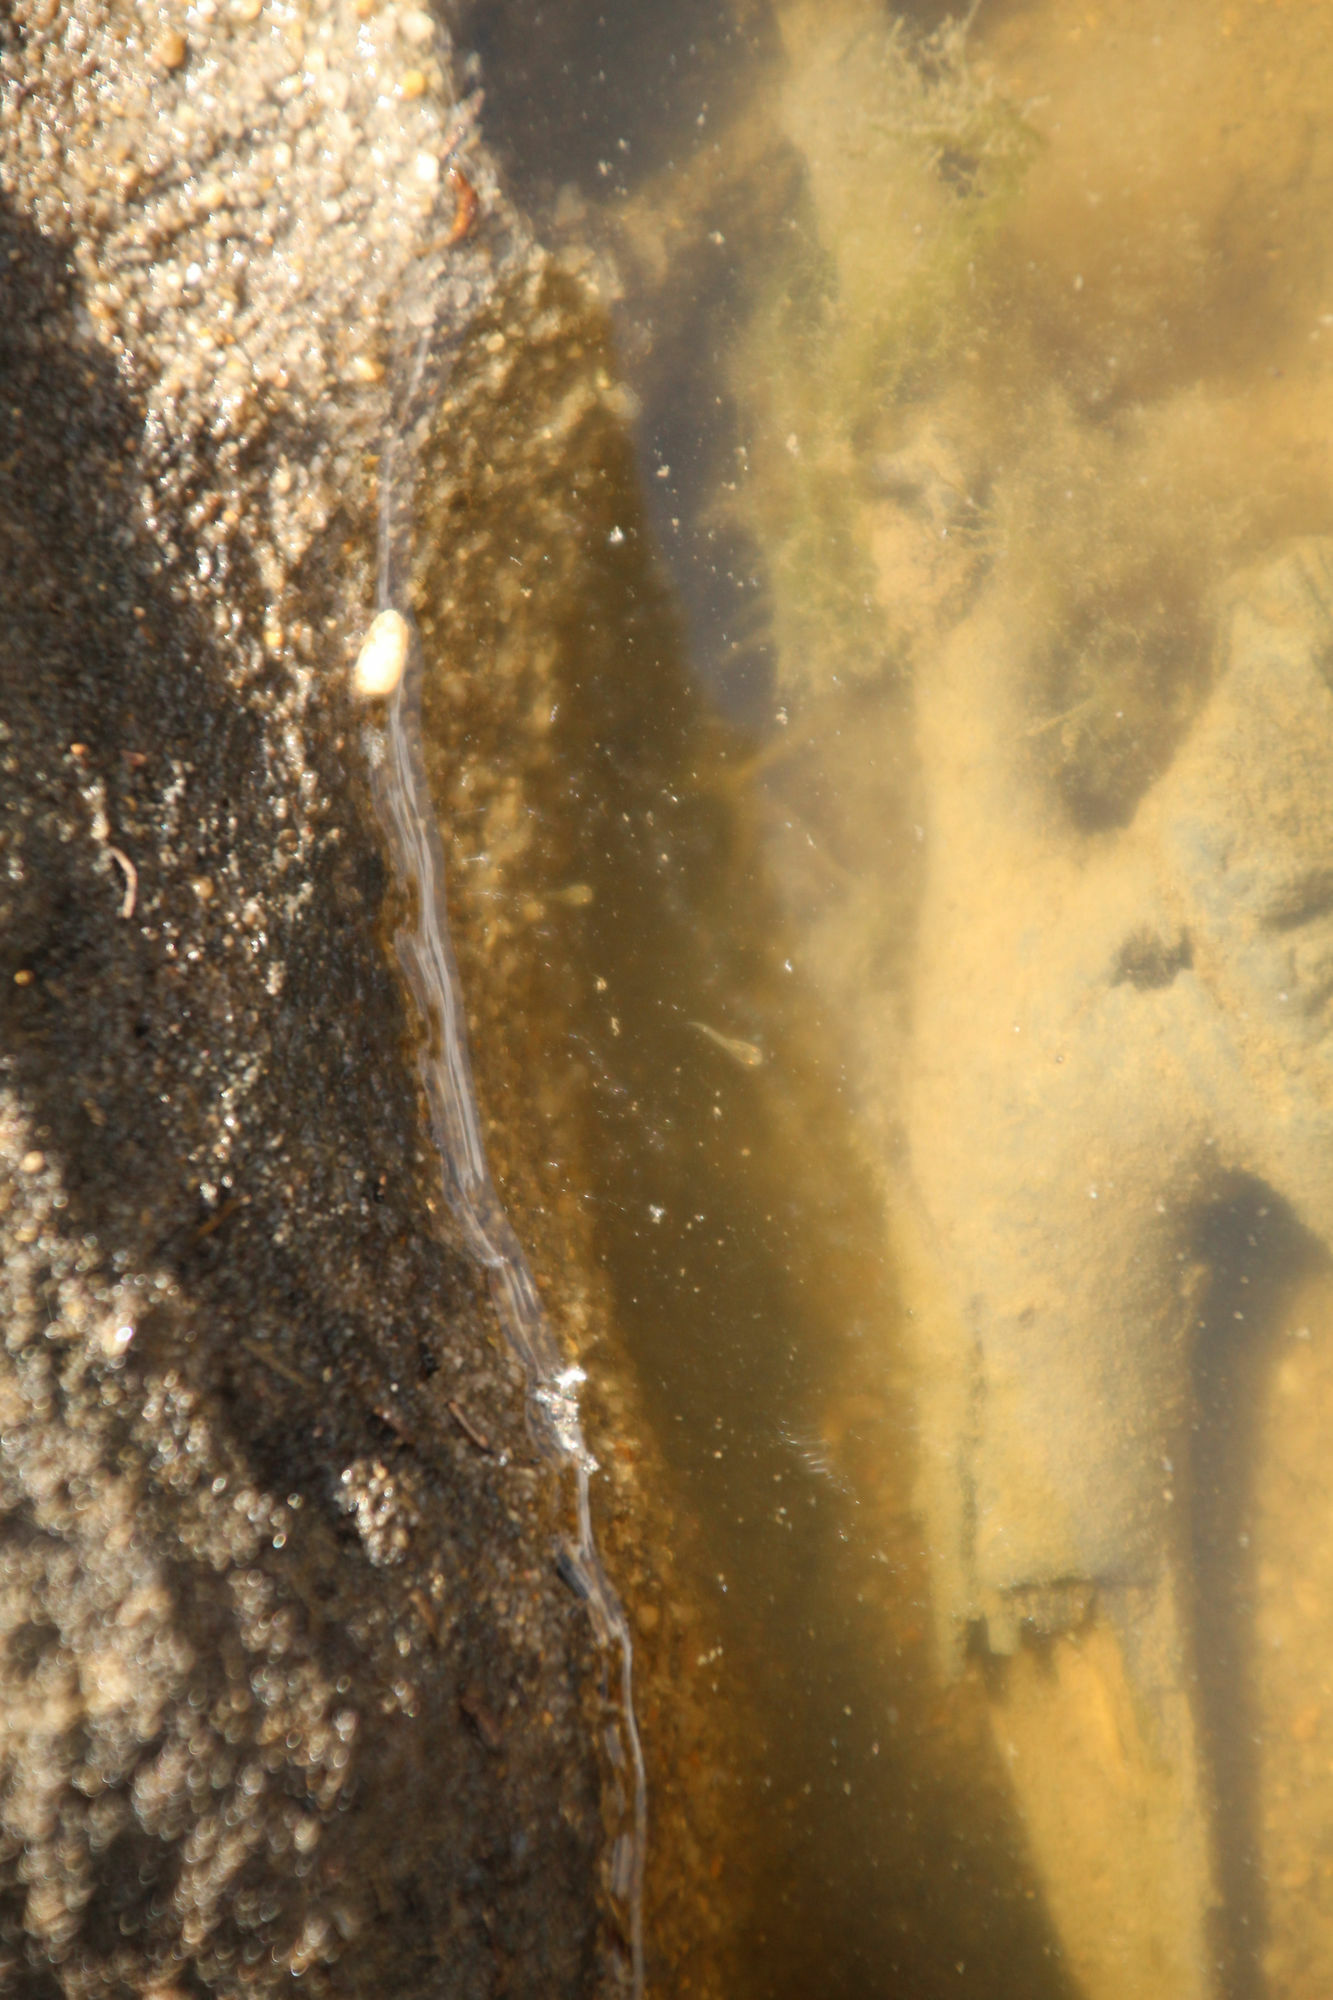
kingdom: Animalia
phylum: Chordata
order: Cyprinodontiformes
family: Poeciliidae
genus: Gambusia
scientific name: Gambusia holbrooki
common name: Eastern mosquitofish
